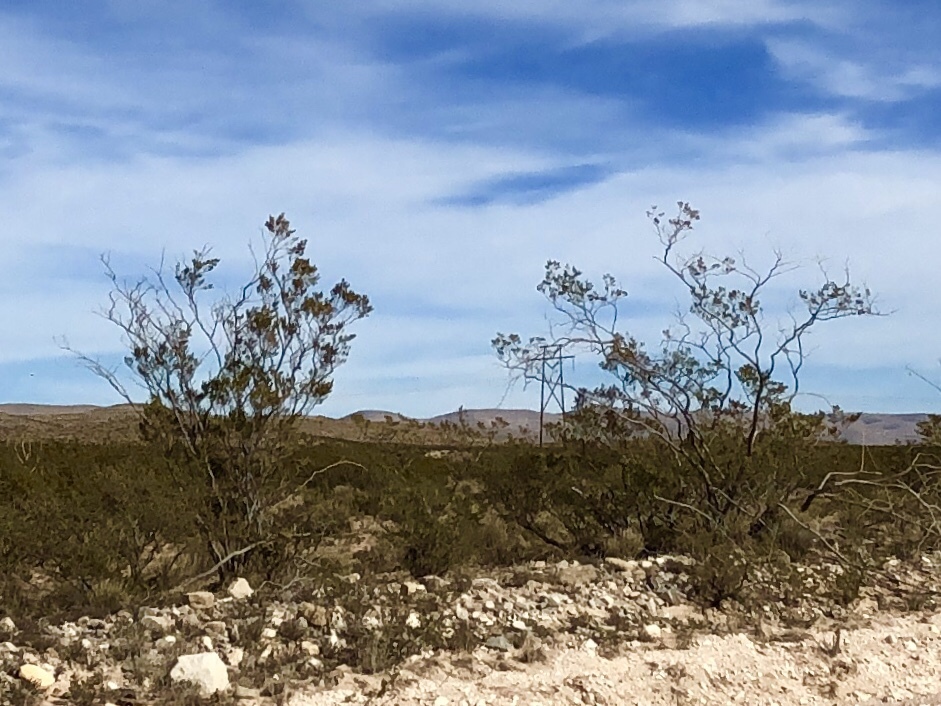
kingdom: Plantae
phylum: Tracheophyta
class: Magnoliopsida
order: Zygophyllales
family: Zygophyllaceae
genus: Larrea
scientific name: Larrea tridentata
